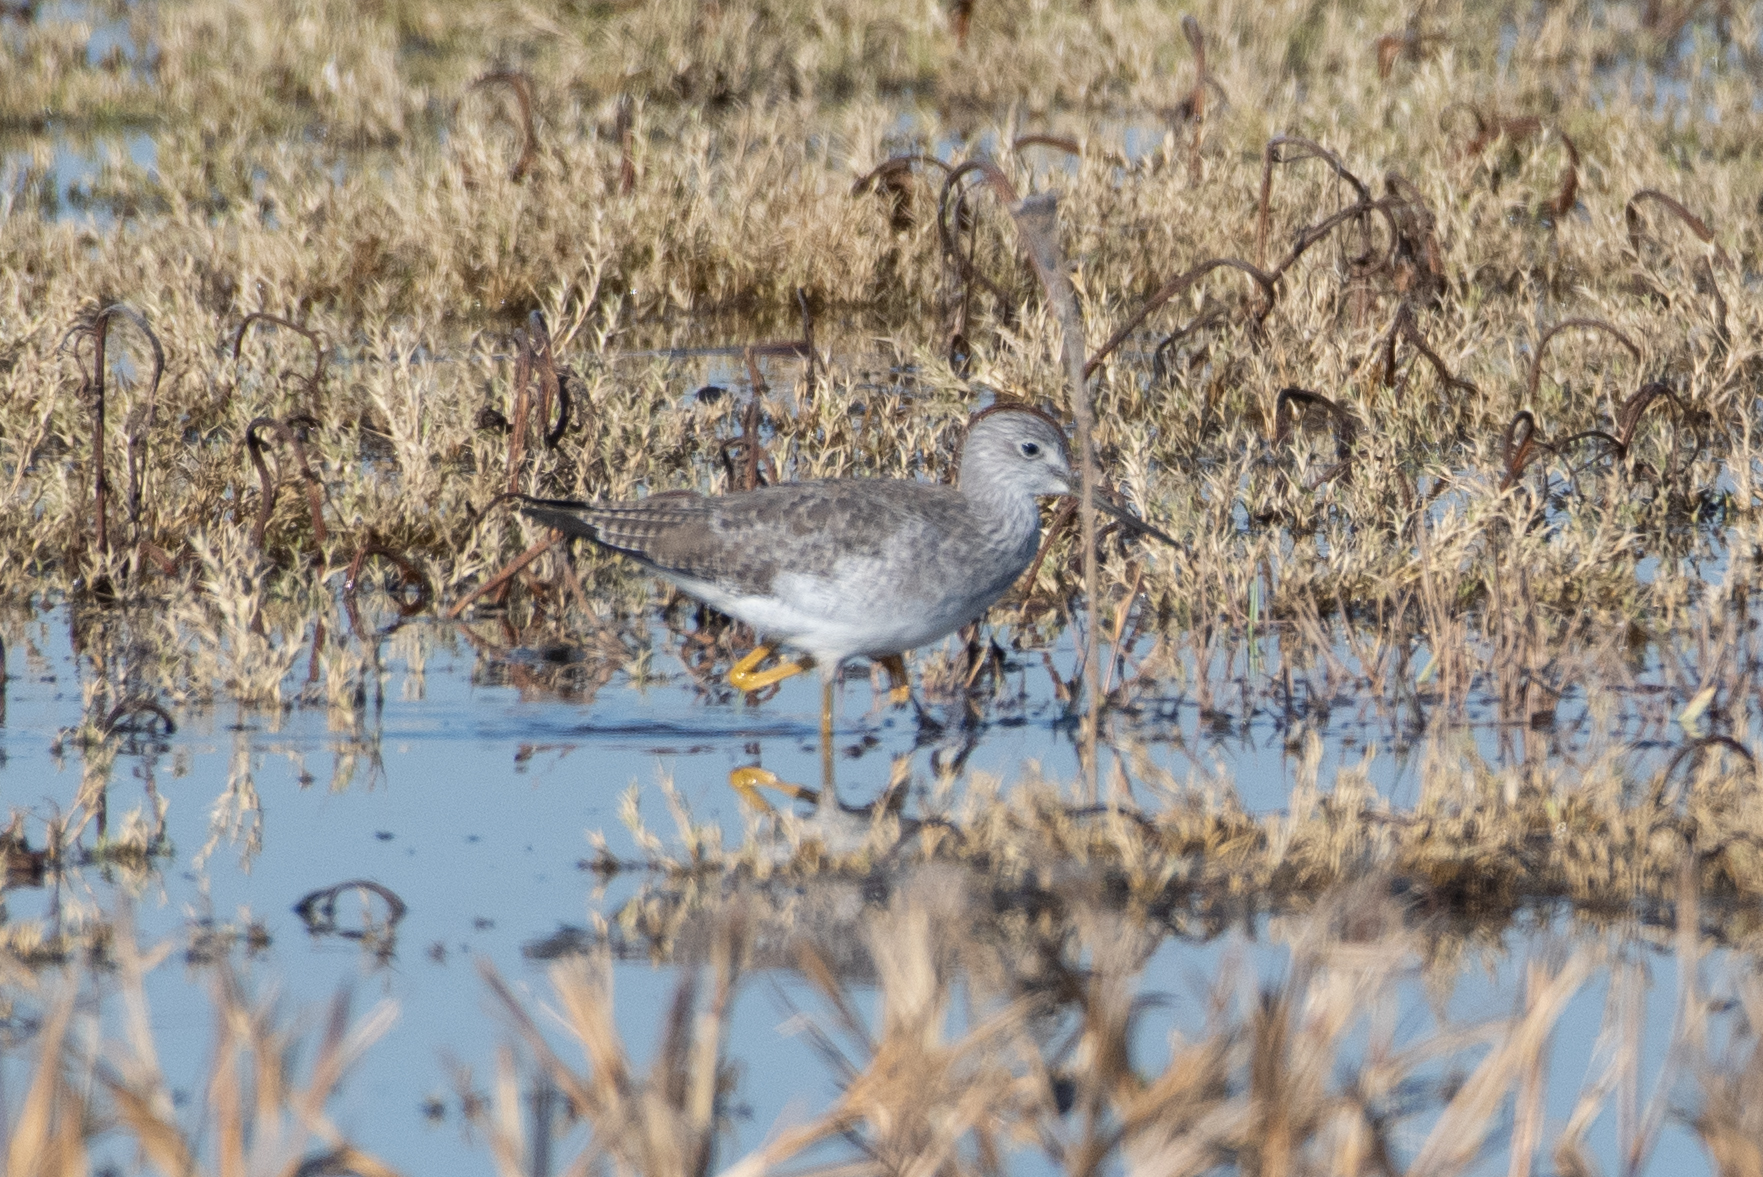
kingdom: Animalia
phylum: Chordata
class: Aves
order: Charadriiformes
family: Scolopacidae
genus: Tringa
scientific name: Tringa melanoleuca
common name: Greater yellowlegs
